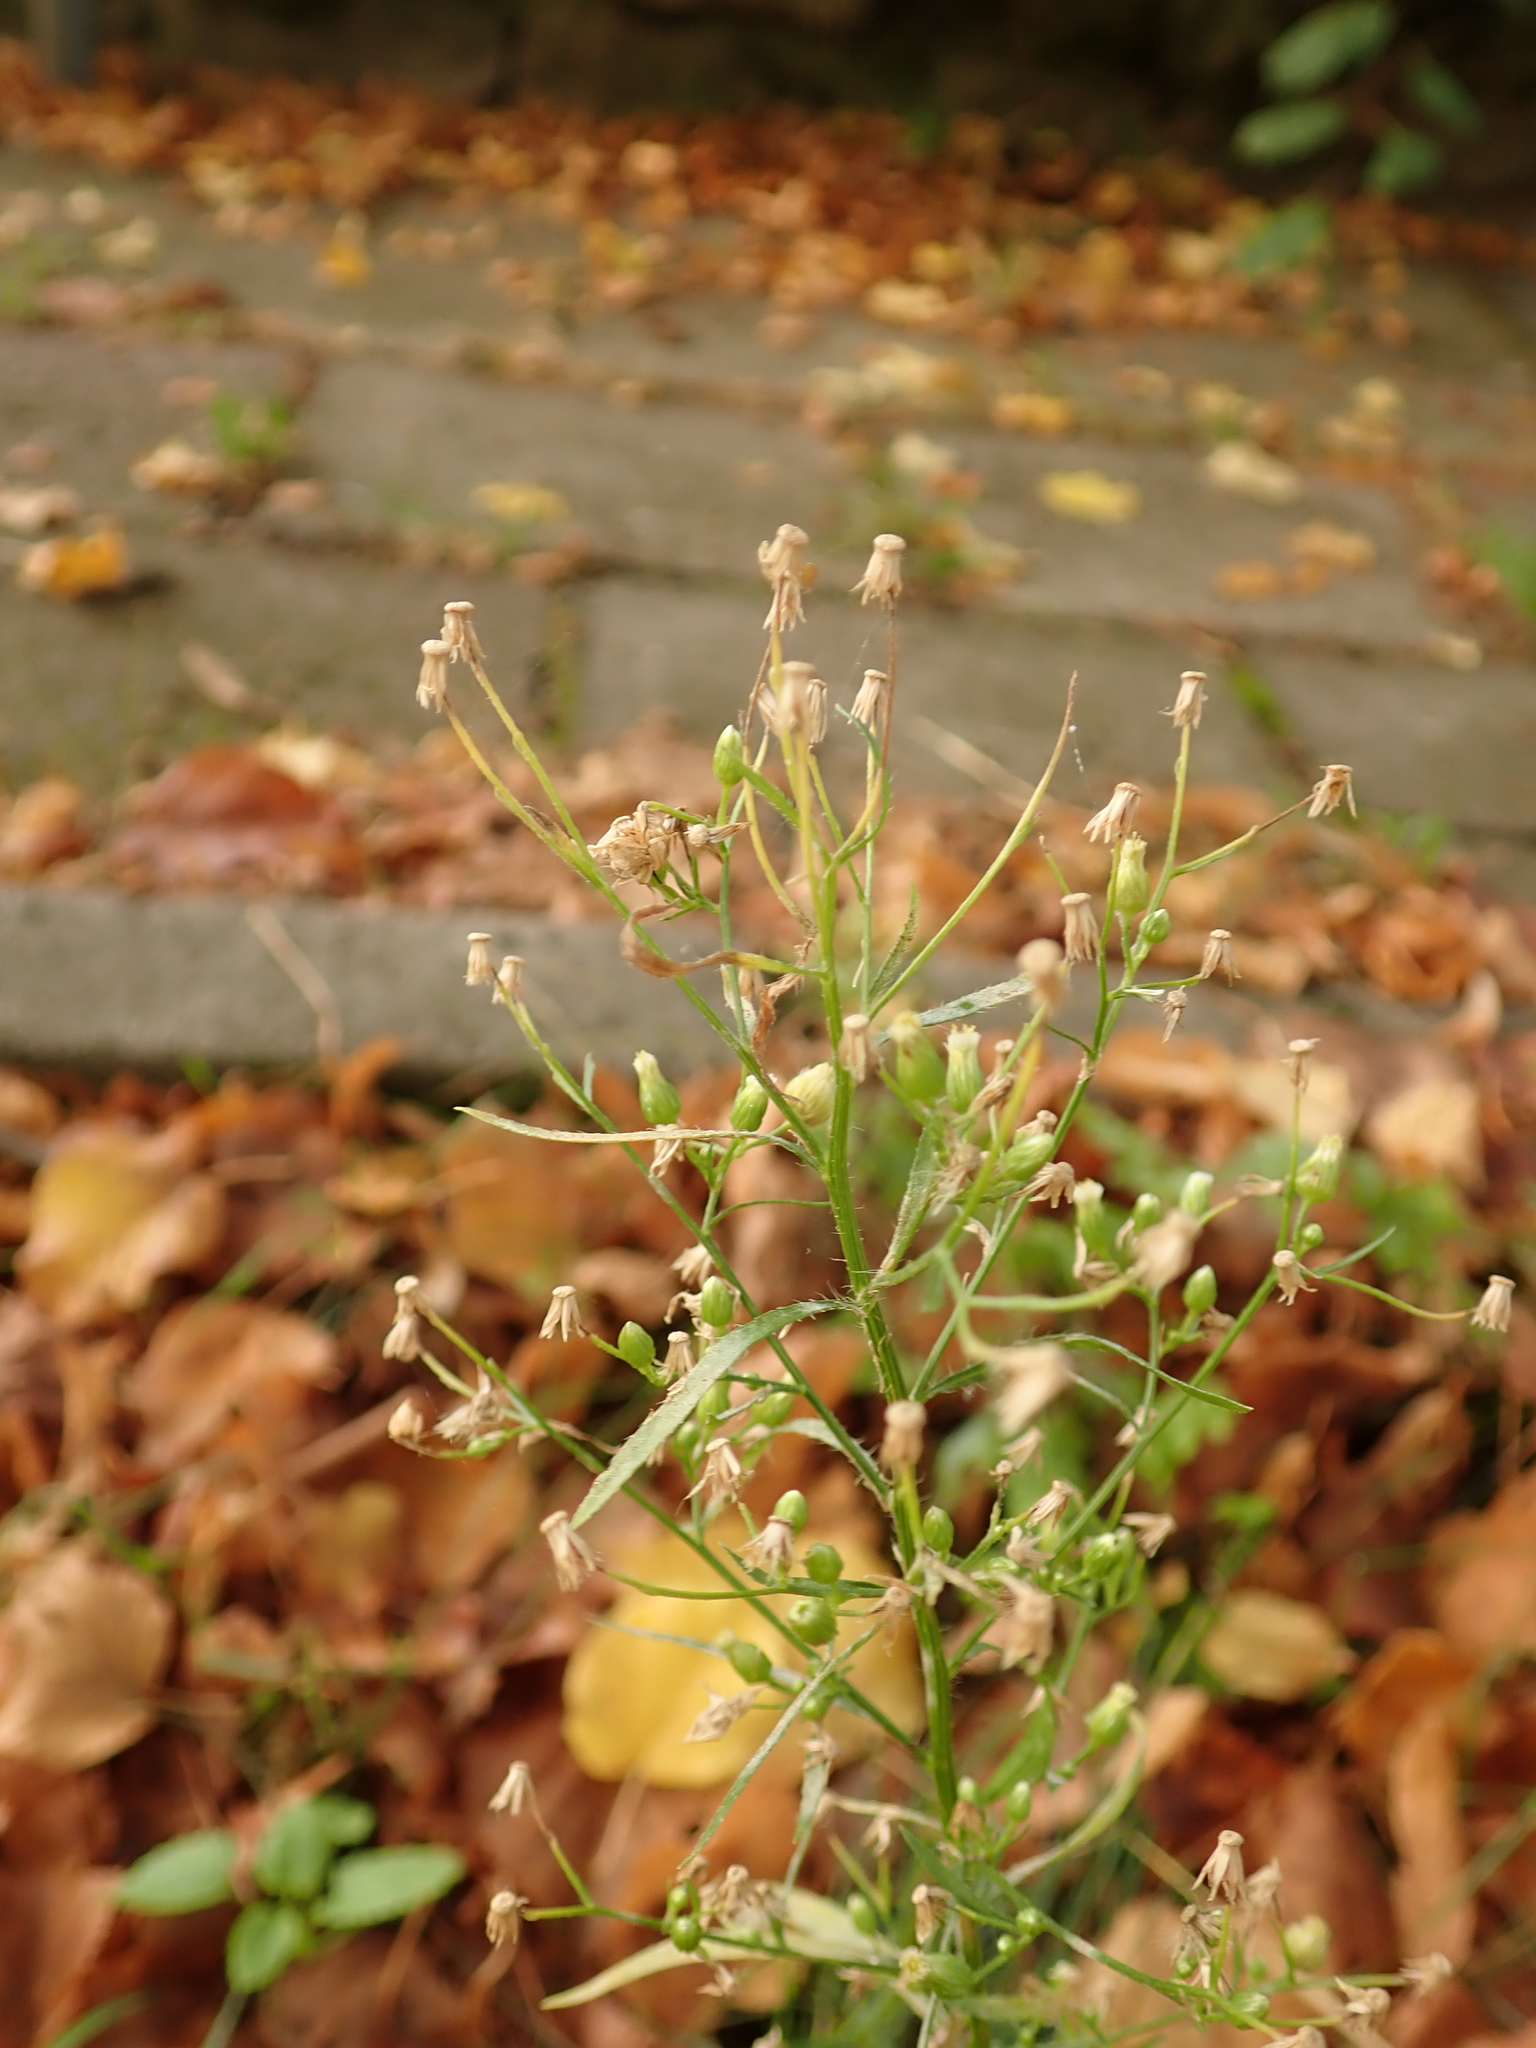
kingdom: Plantae
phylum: Tracheophyta
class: Magnoliopsida
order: Asterales
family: Asteraceae
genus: Erigeron
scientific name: Erigeron canadensis
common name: Canadian fleabane
